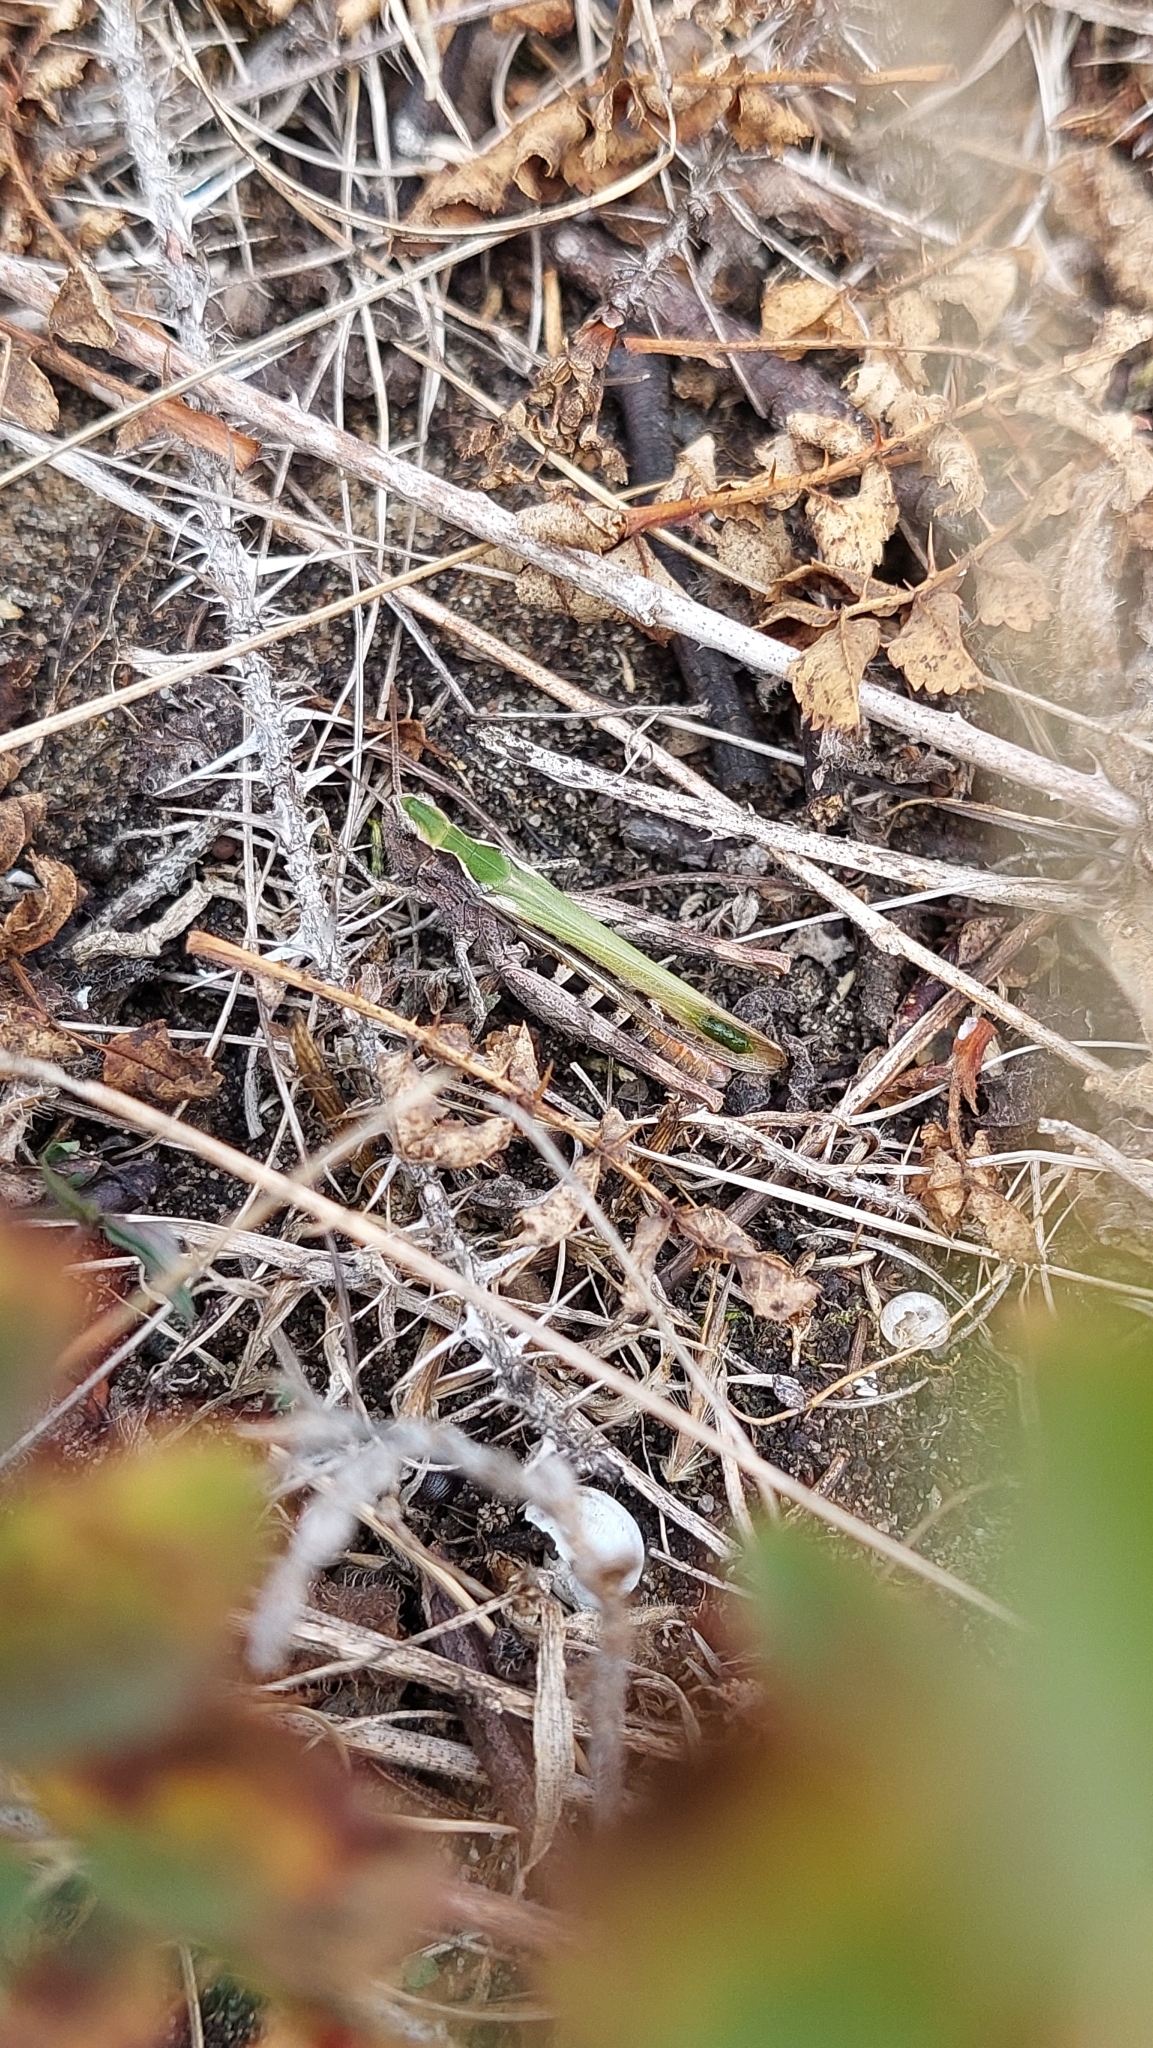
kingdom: Animalia
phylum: Arthropoda
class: Insecta
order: Orthoptera
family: Acrididae
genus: Chorthippus
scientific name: Chorthippus brunneus
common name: Field grasshopper
